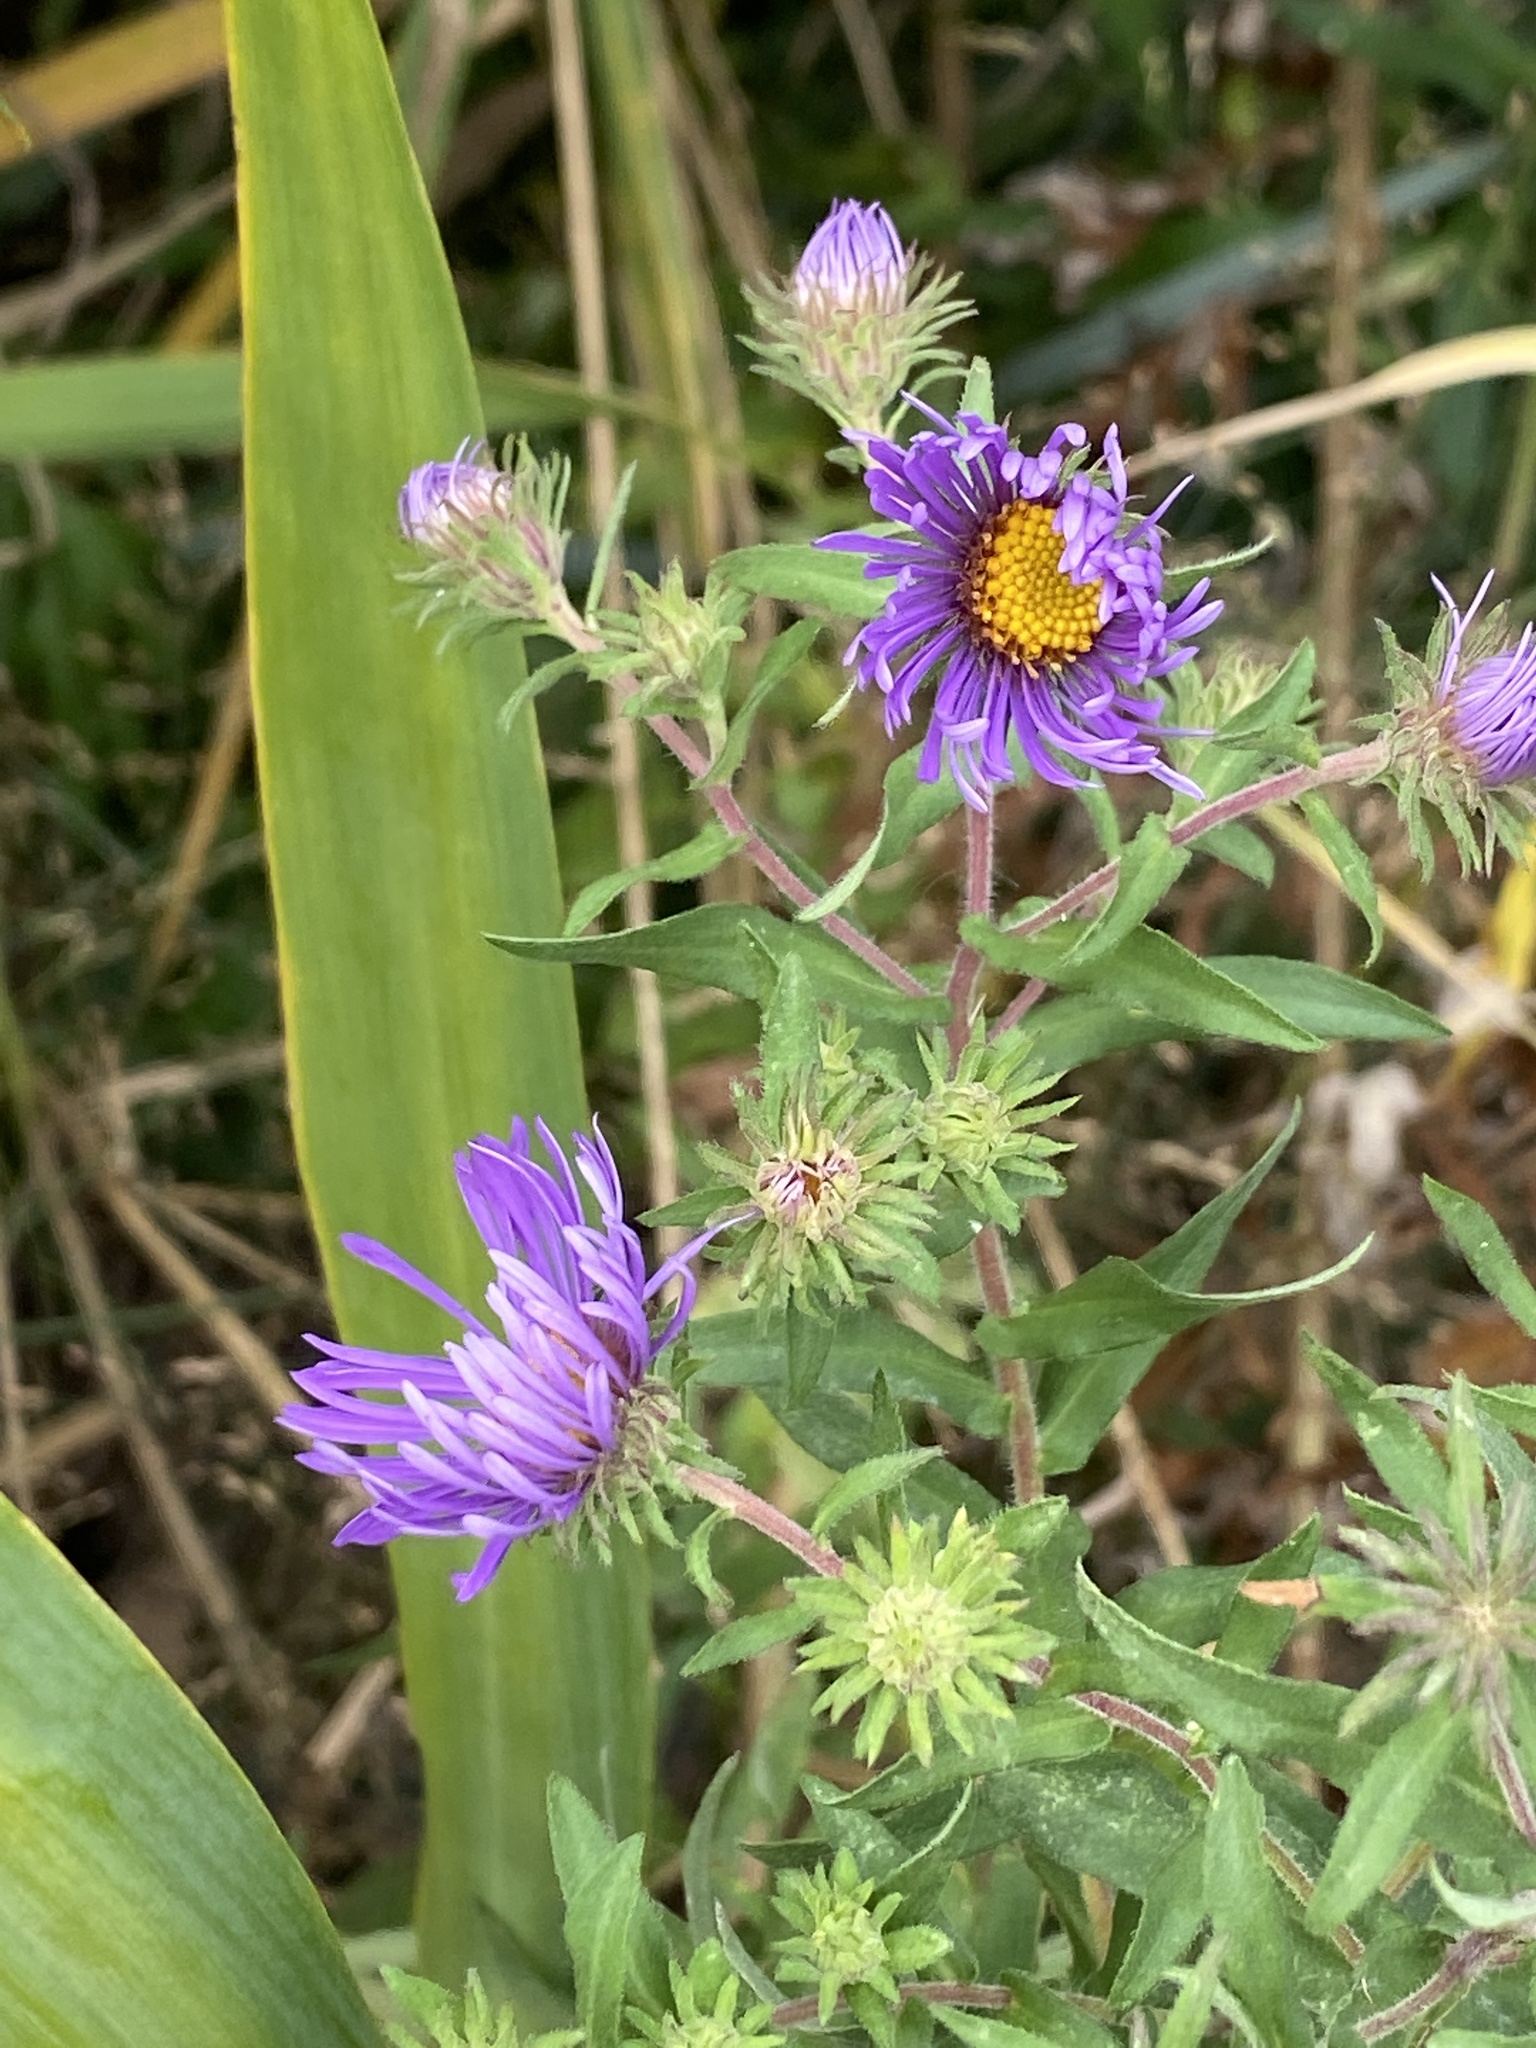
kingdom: Plantae
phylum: Tracheophyta
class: Magnoliopsida
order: Asterales
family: Asteraceae
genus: Symphyotrichum
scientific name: Symphyotrichum novae-angliae
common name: Michaelmas daisy
